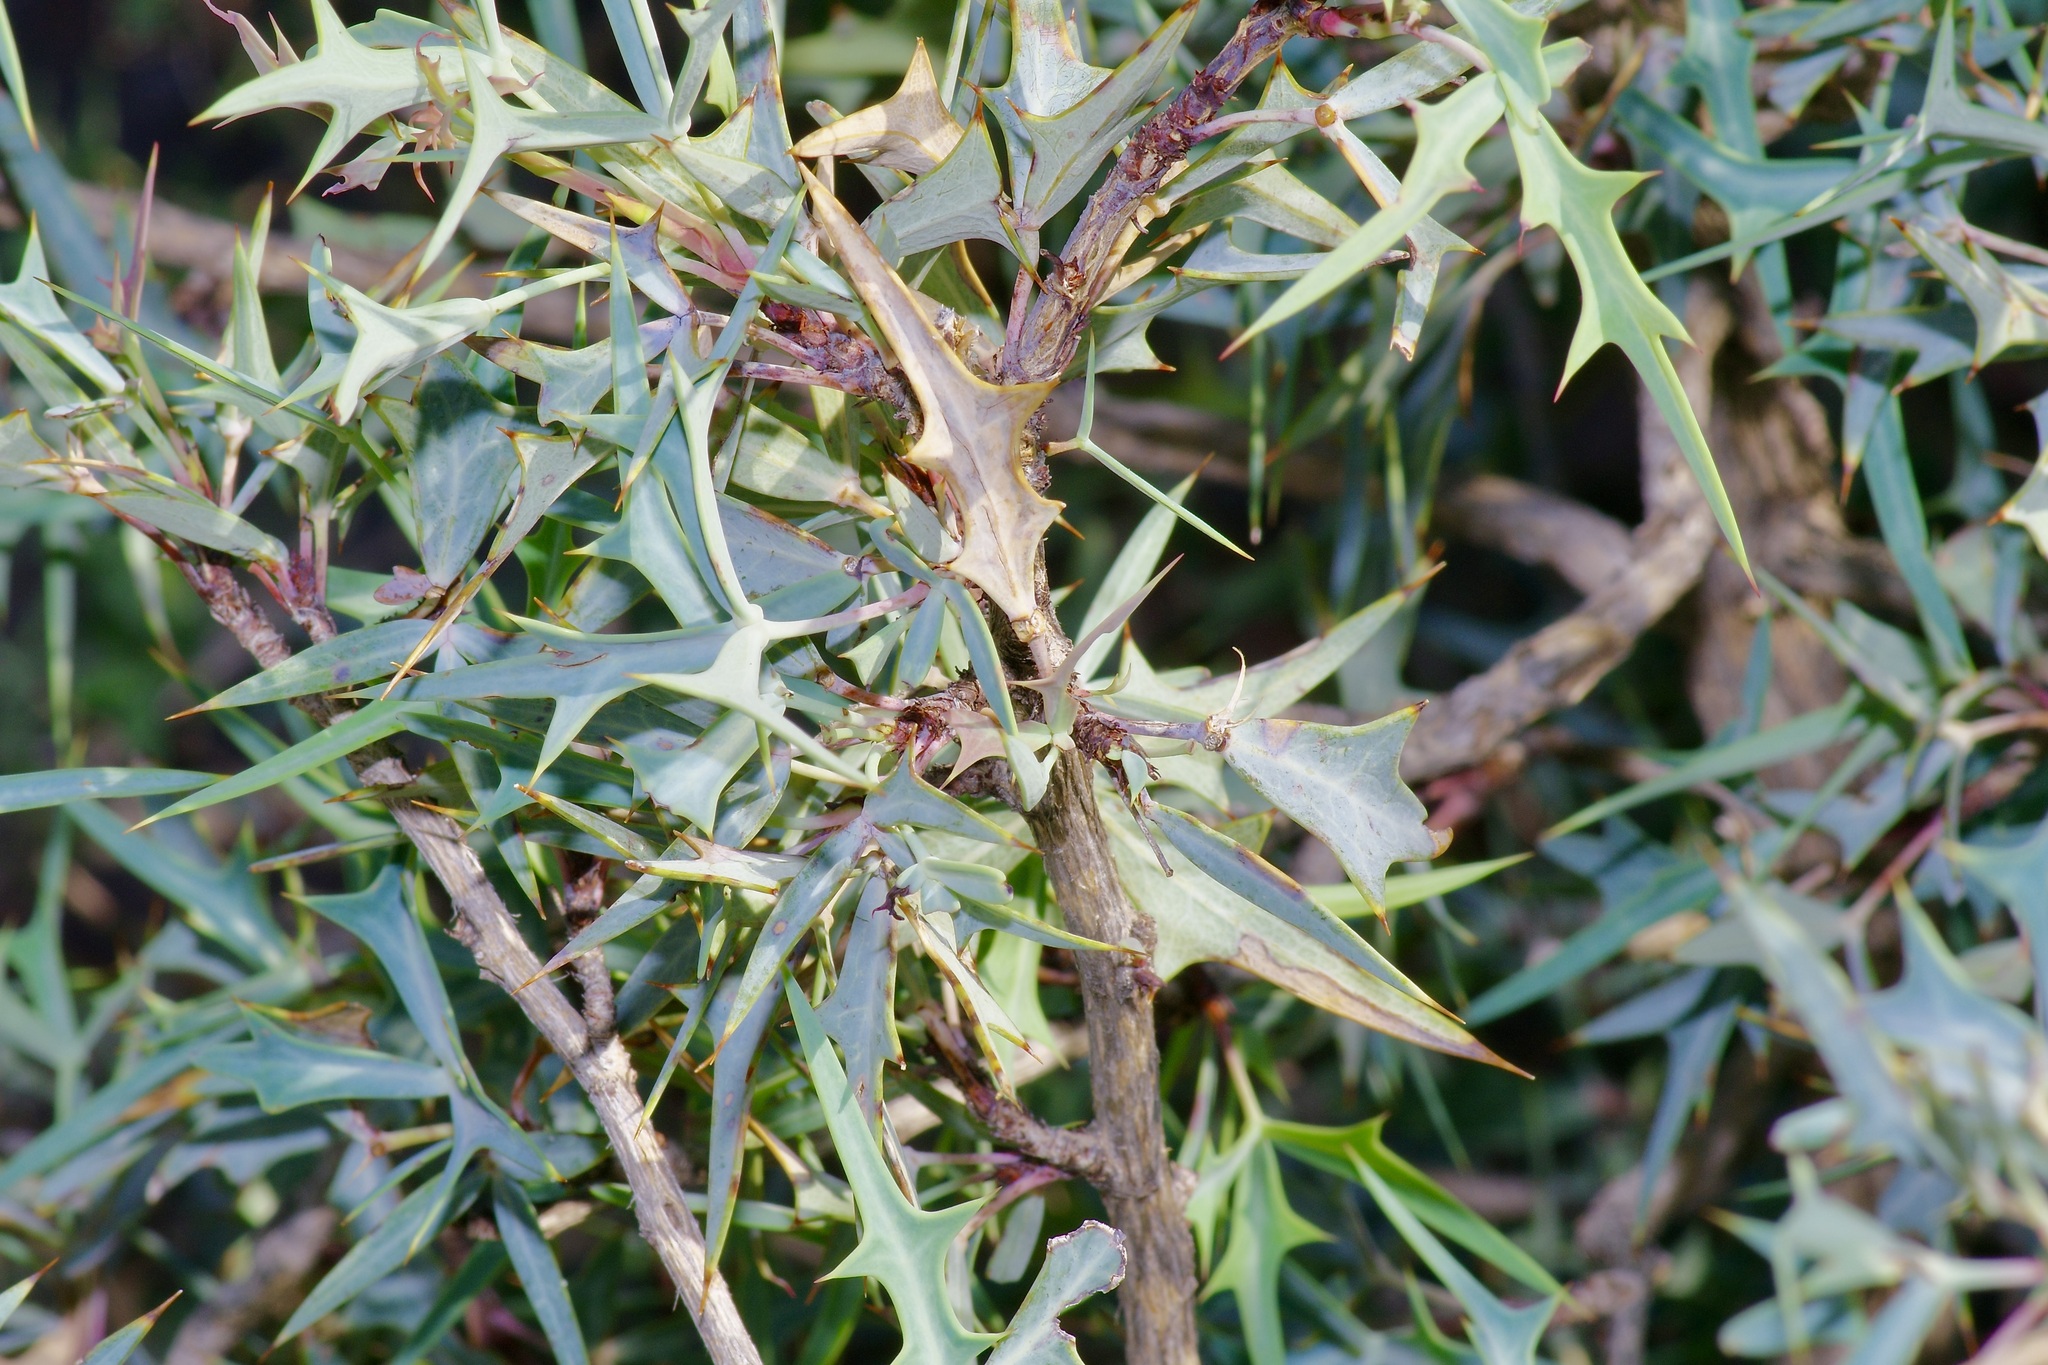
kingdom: Plantae
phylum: Tracheophyta
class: Magnoliopsida
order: Ranunculales
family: Berberidaceae
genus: Alloberberis
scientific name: Alloberberis trifoliolata
